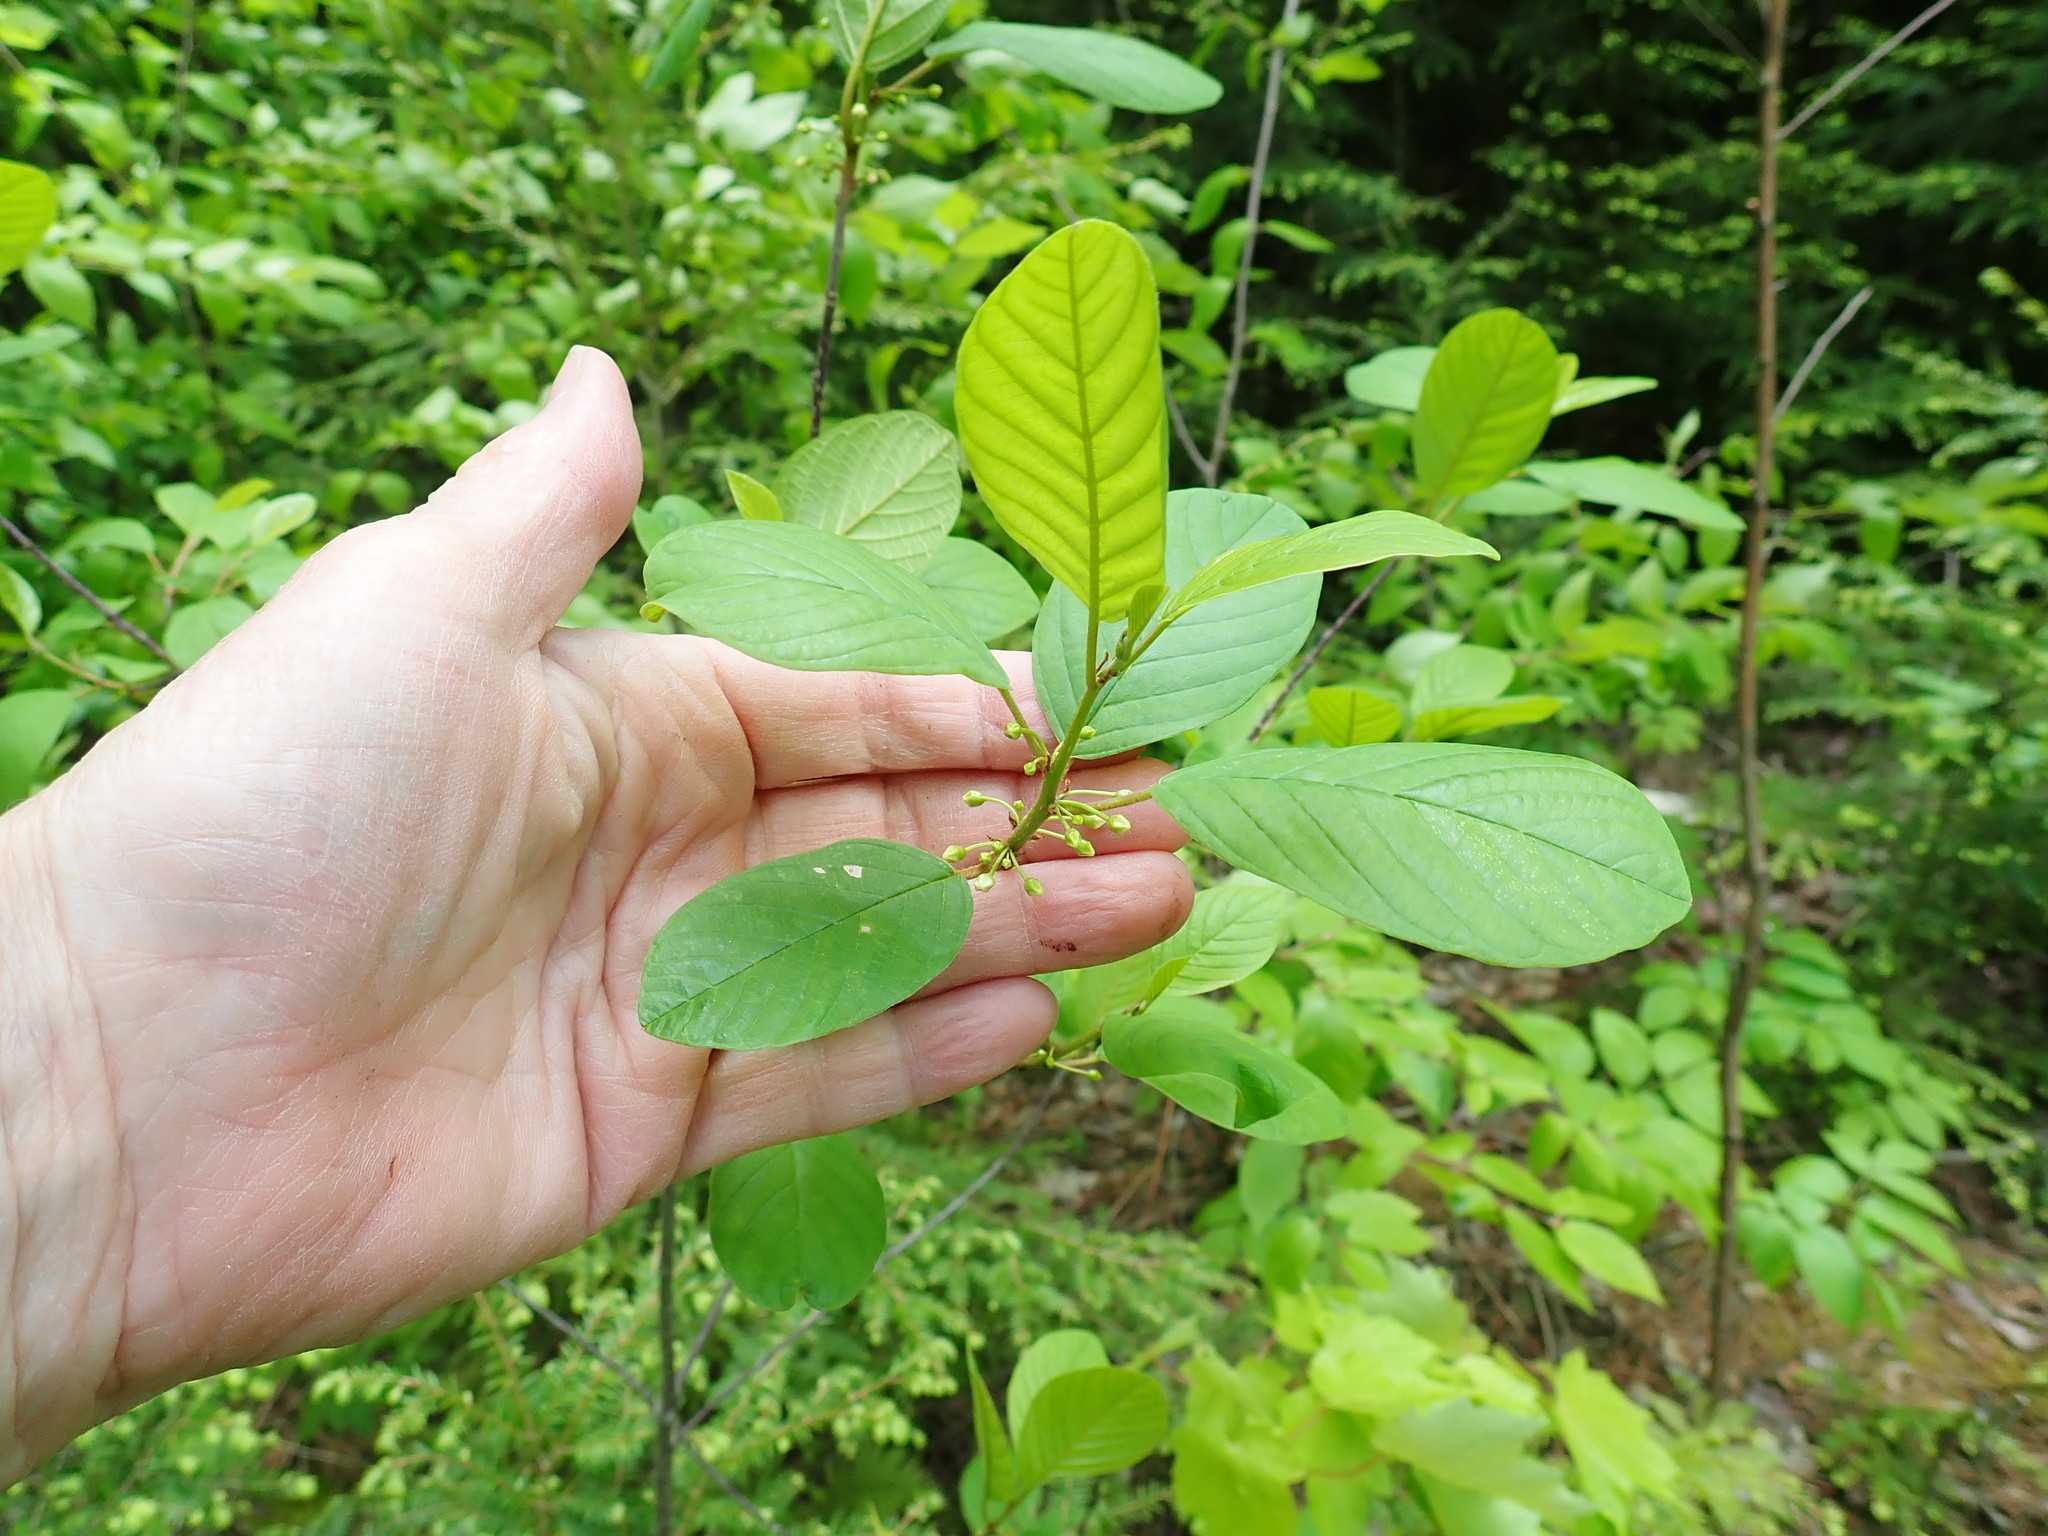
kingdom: Plantae
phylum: Tracheophyta
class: Magnoliopsida
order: Rosales
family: Rhamnaceae
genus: Frangula
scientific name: Frangula alnus
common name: Alder buckthorn
